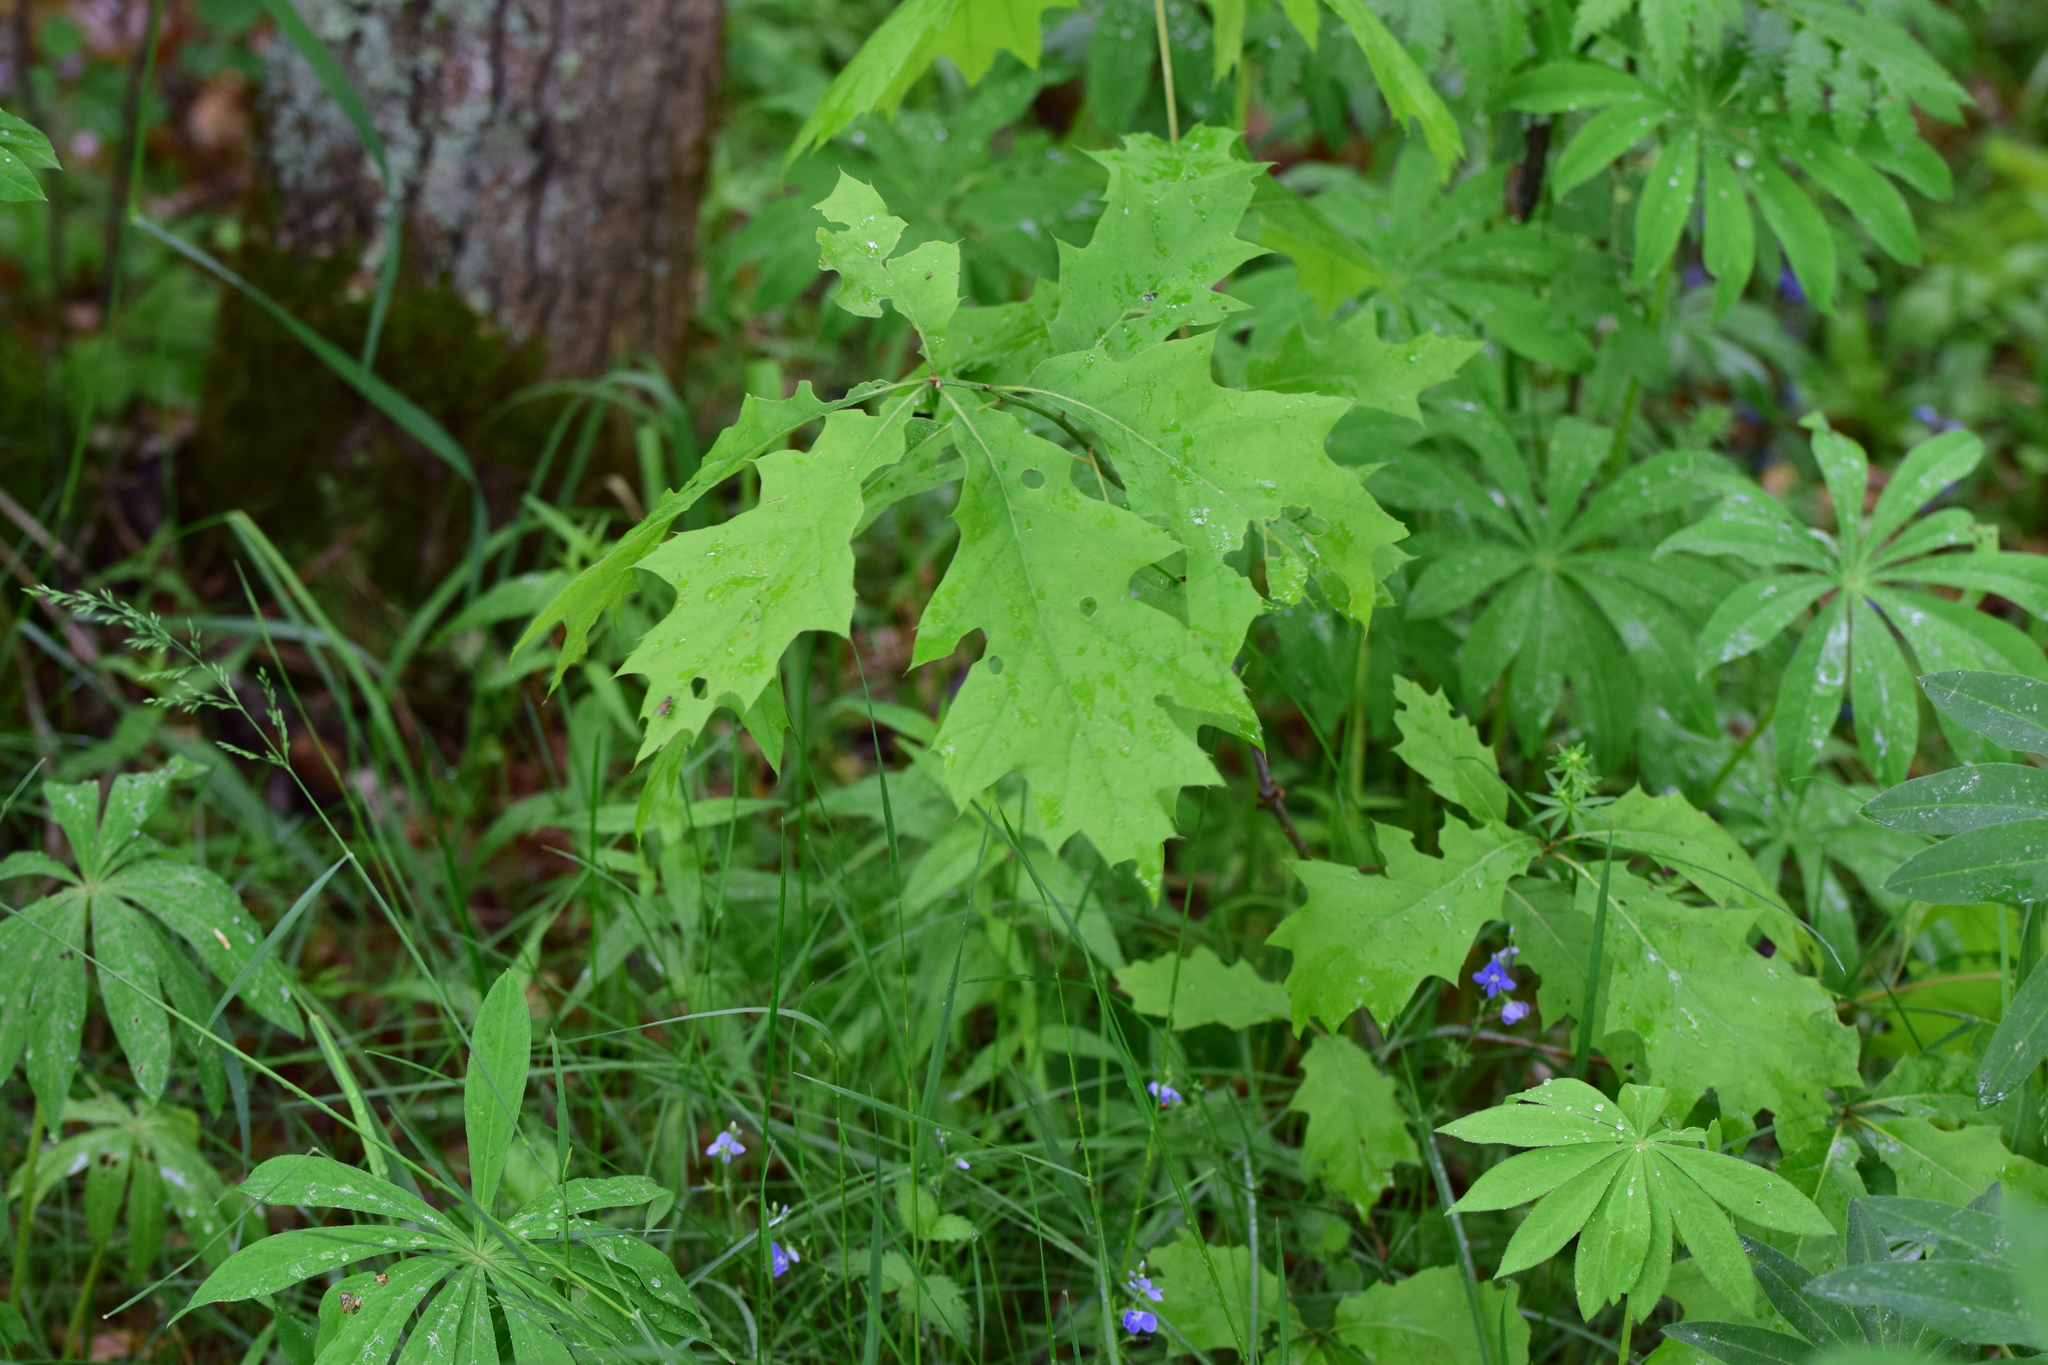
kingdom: Plantae
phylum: Tracheophyta
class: Magnoliopsida
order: Fagales
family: Fagaceae
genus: Quercus
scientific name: Quercus rubra
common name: Red oak
